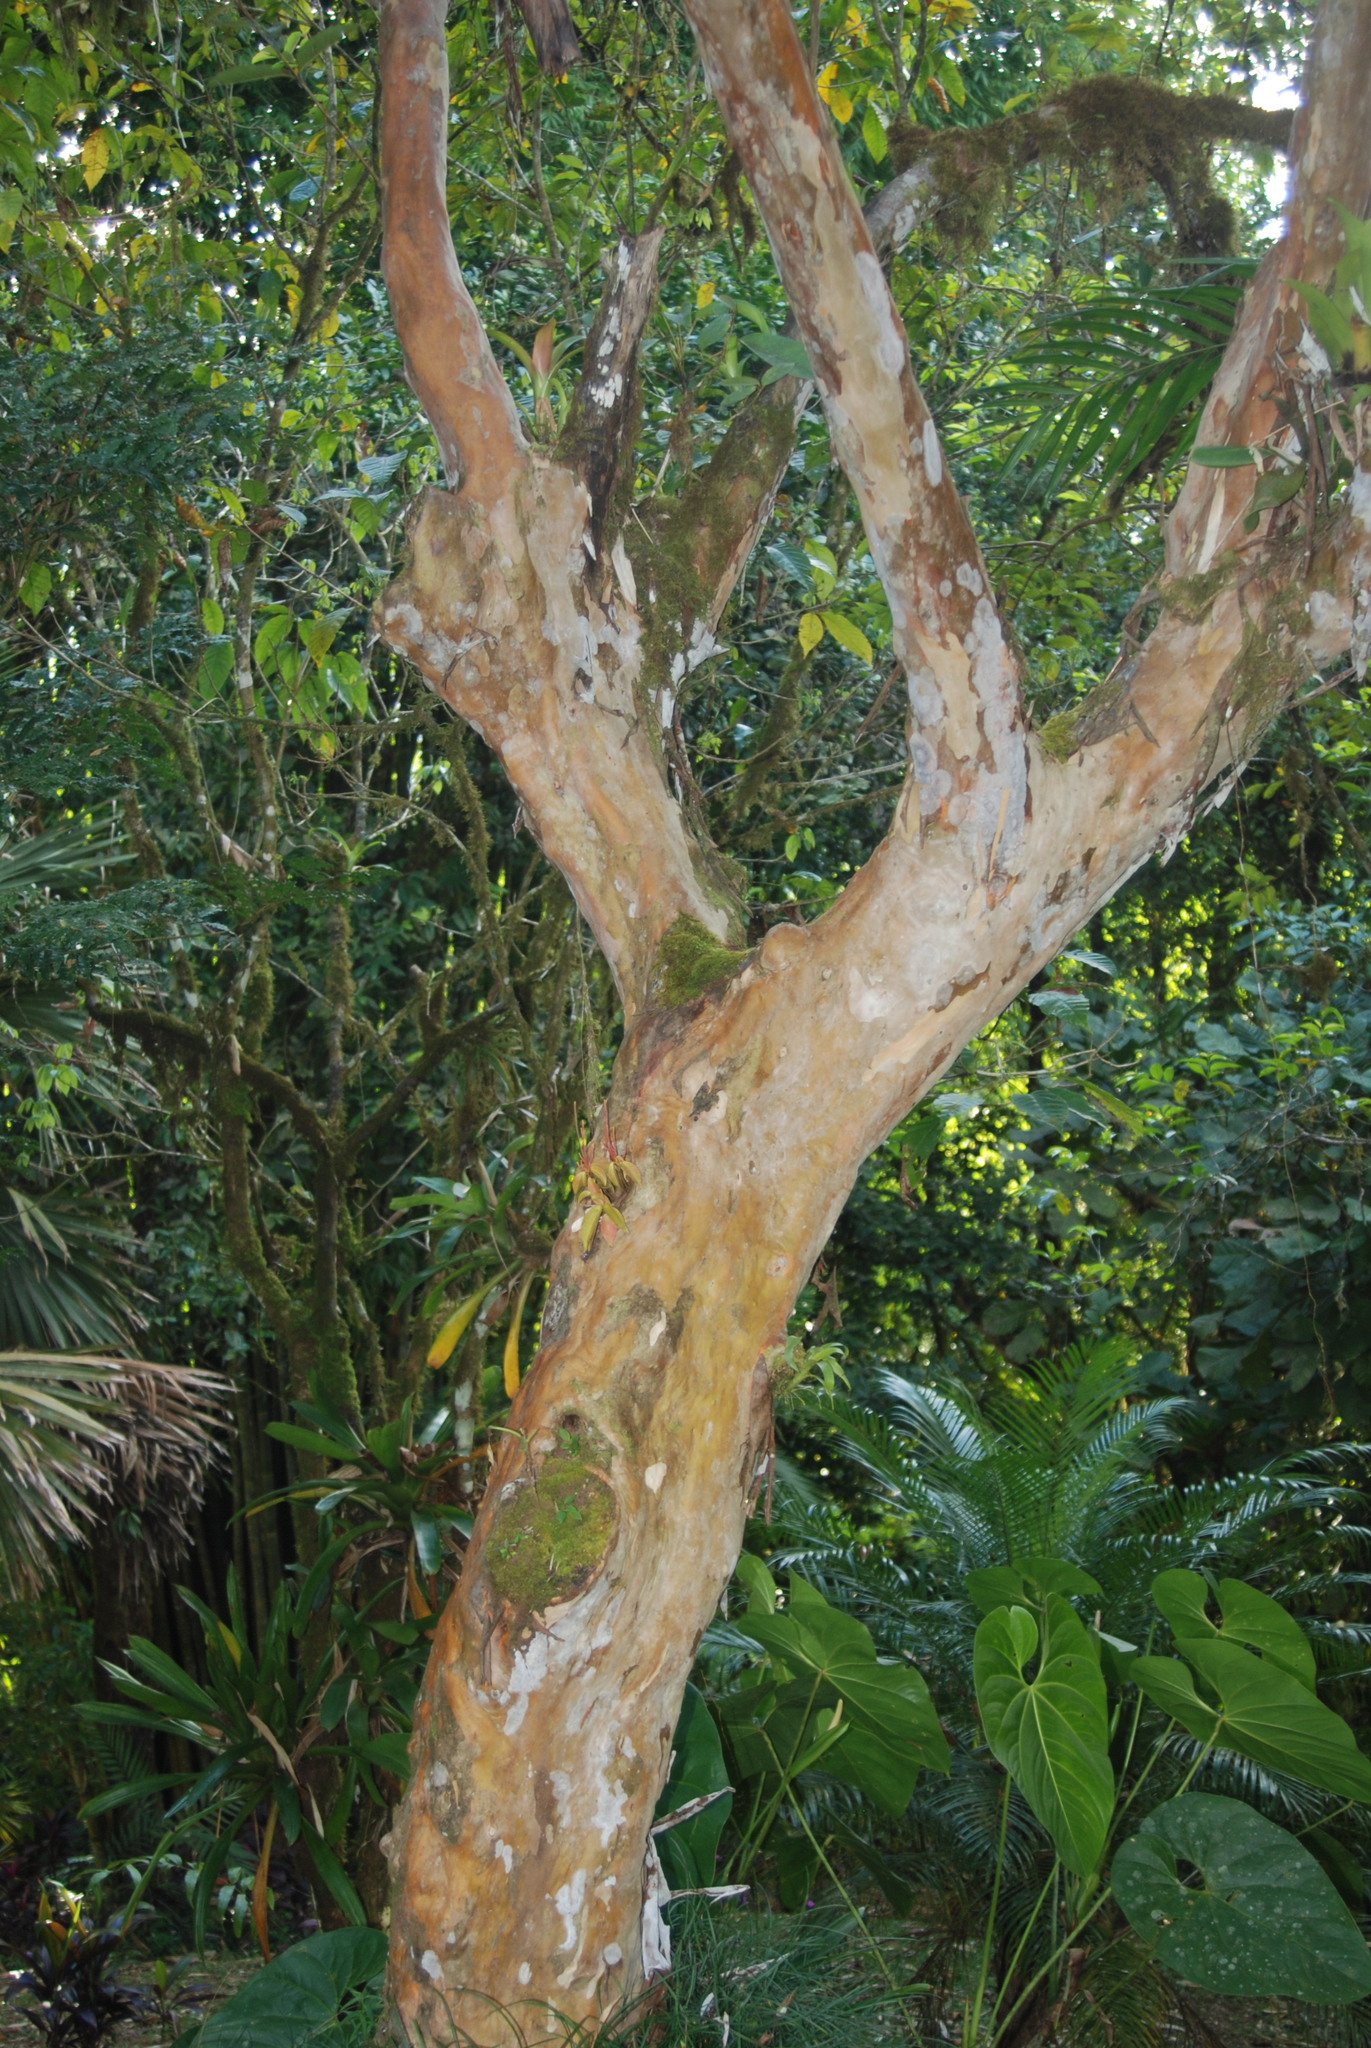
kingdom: Plantae
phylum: Tracheophyta
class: Magnoliopsida
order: Myrtales
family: Myrtaceae
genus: Psidium
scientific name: Psidium guajava
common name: Guava
